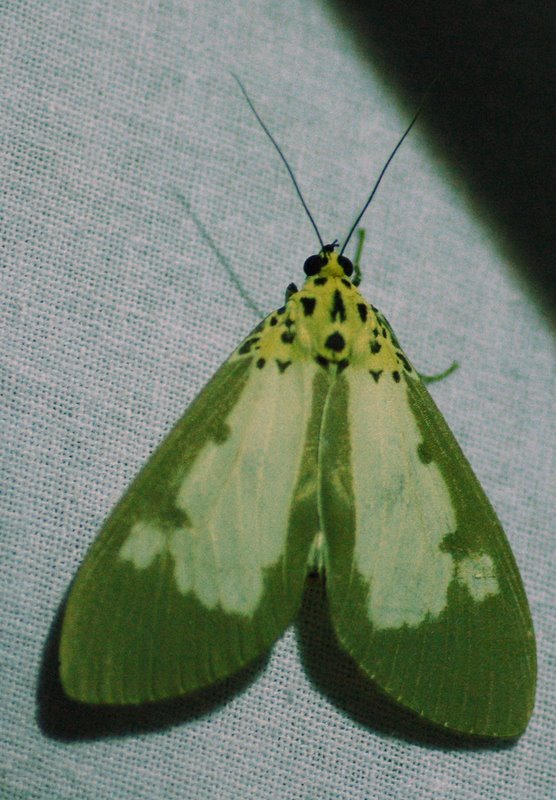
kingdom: Animalia
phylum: Arthropoda
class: Insecta
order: Lepidoptera
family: Erebidae
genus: Asota
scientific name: Asota plana
